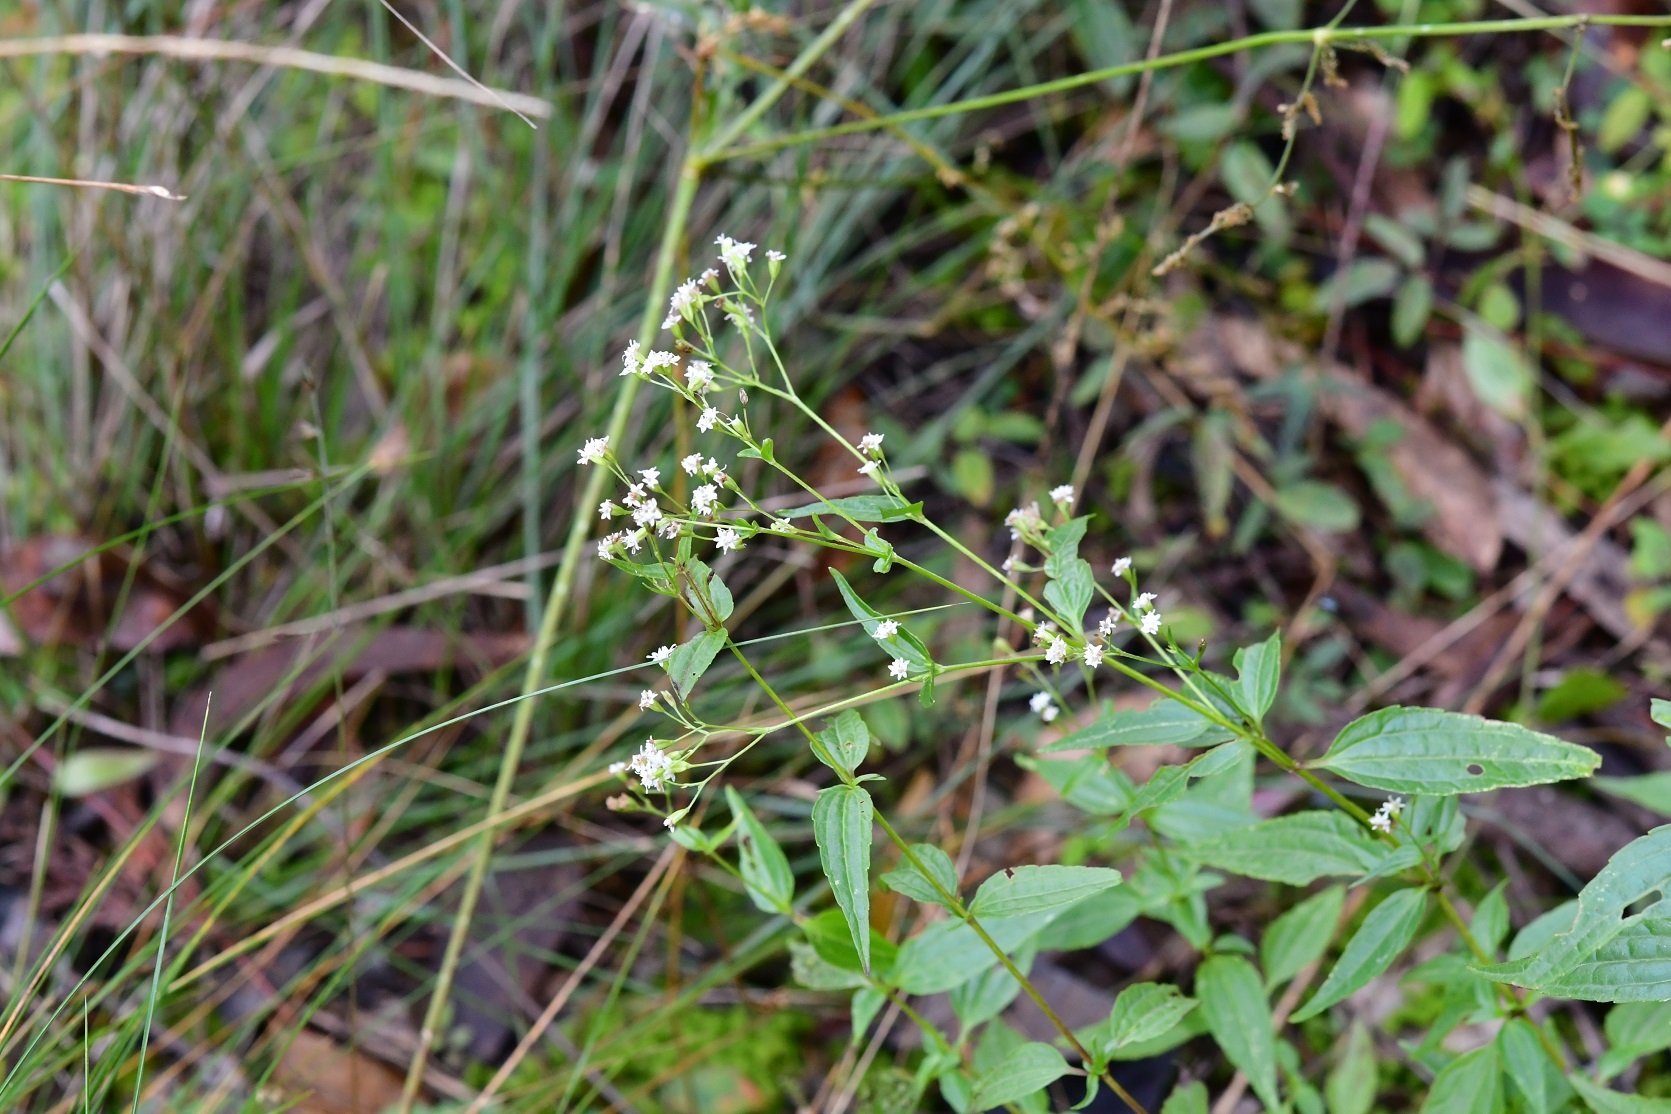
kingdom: Plantae
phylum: Tracheophyta
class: Magnoliopsida
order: Asterales
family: Asteraceae
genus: Piqueria
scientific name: Piqueria trinervia
